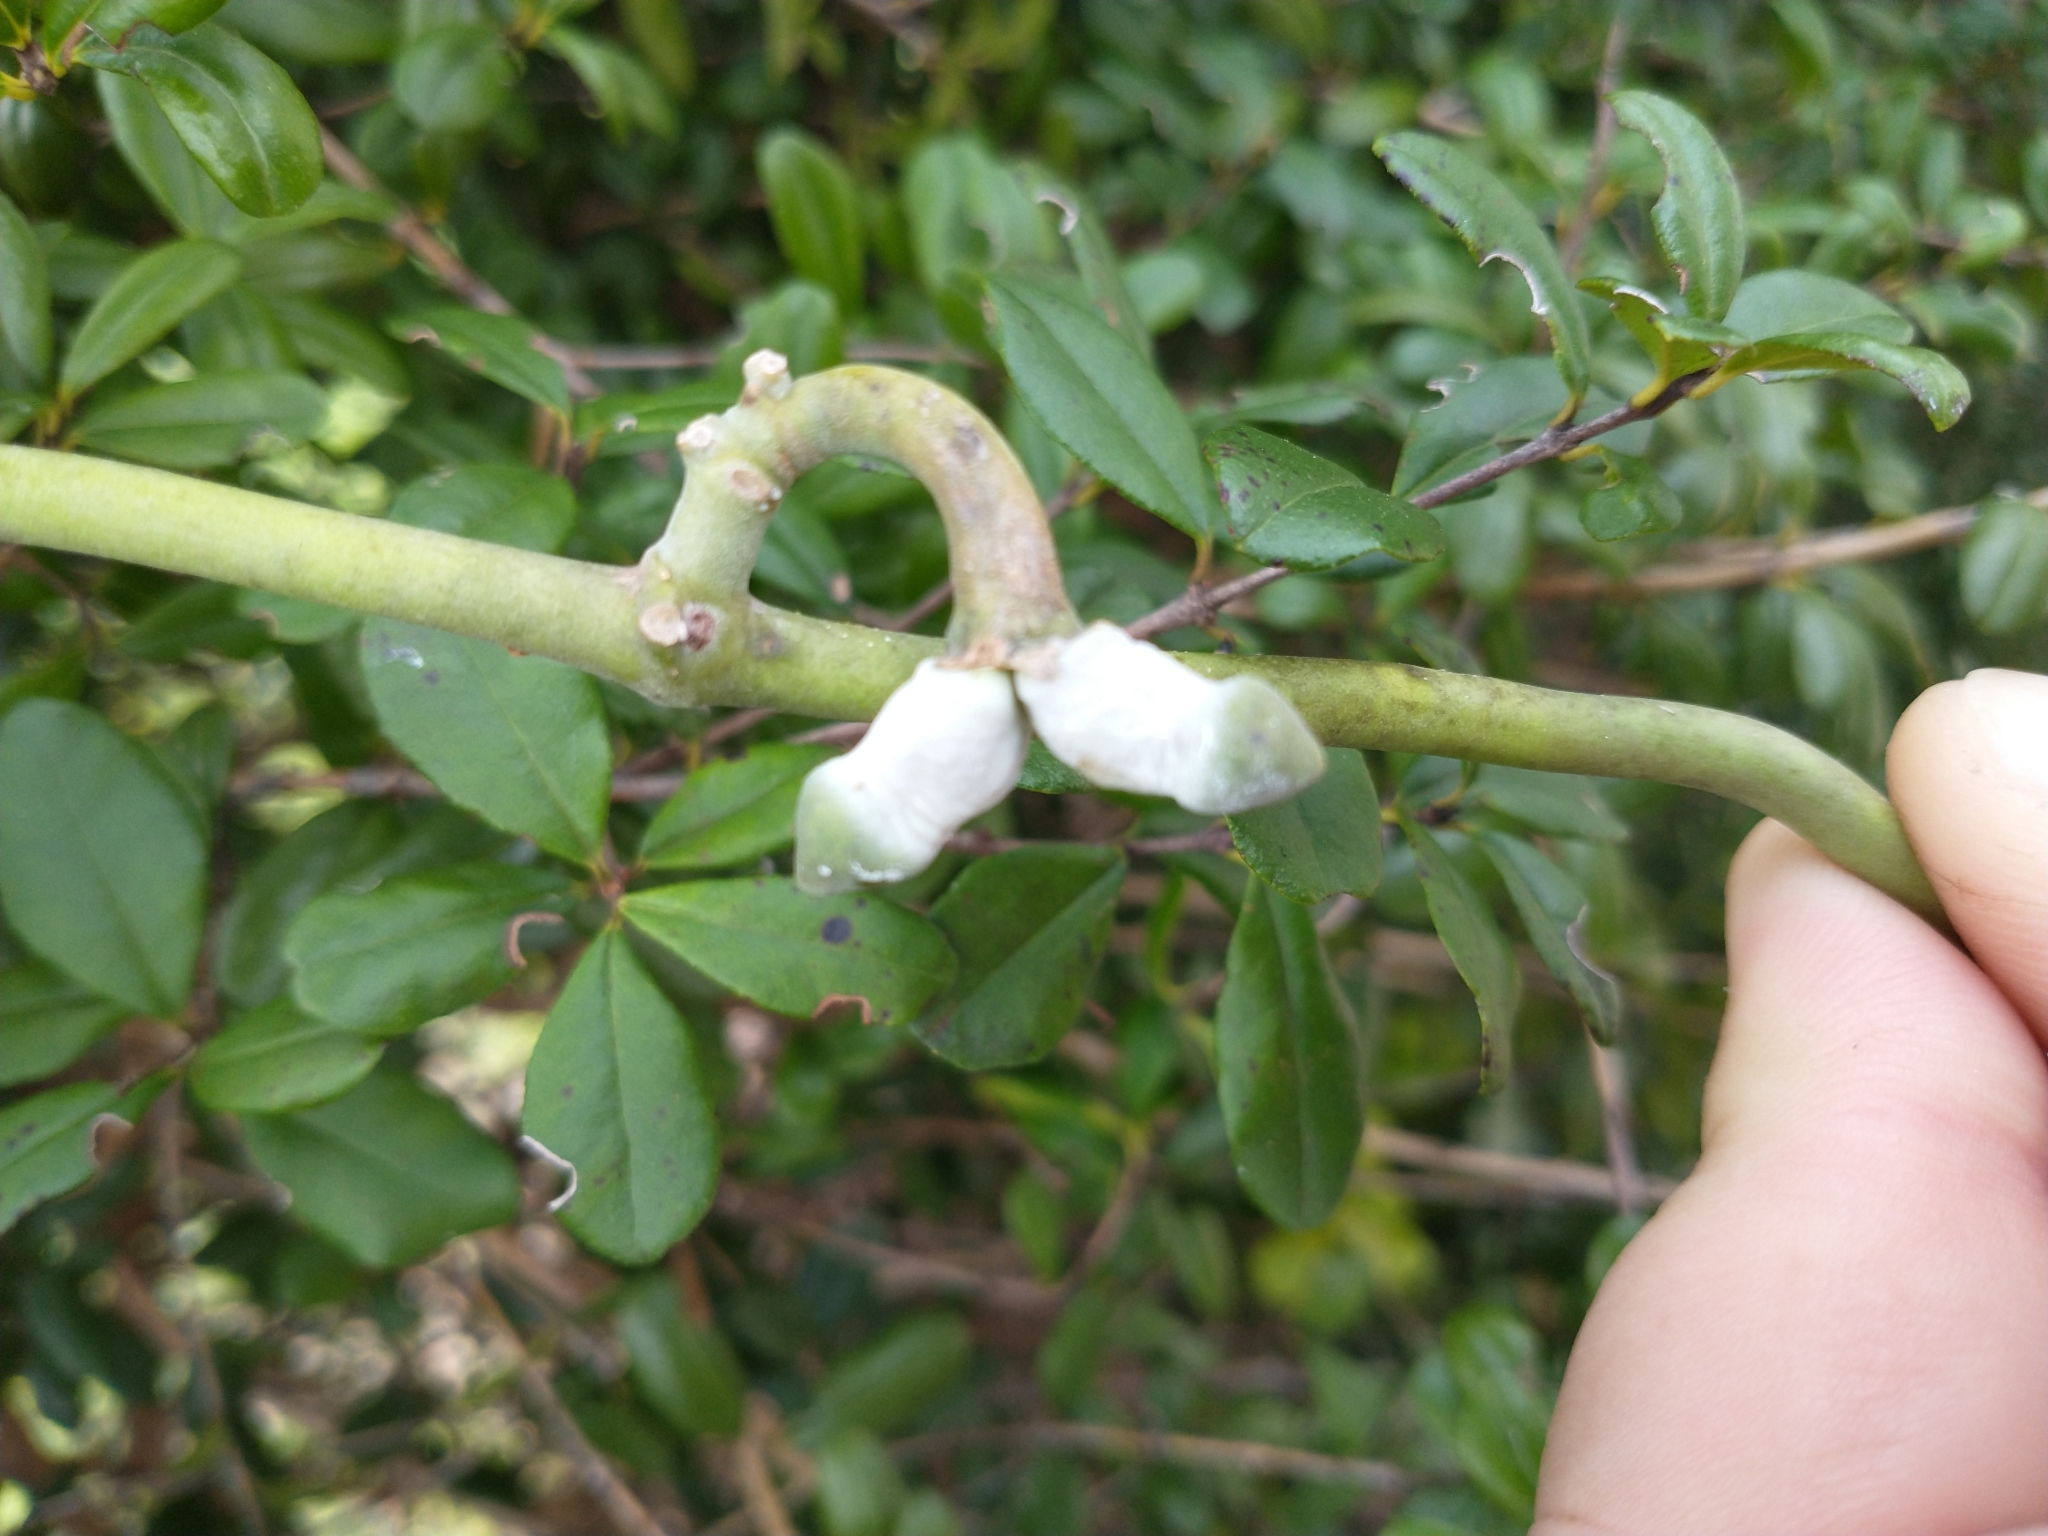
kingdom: Plantae
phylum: Tracheophyta
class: Magnoliopsida
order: Gentianales
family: Apocynaceae
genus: Araujia
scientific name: Araujia odorata
